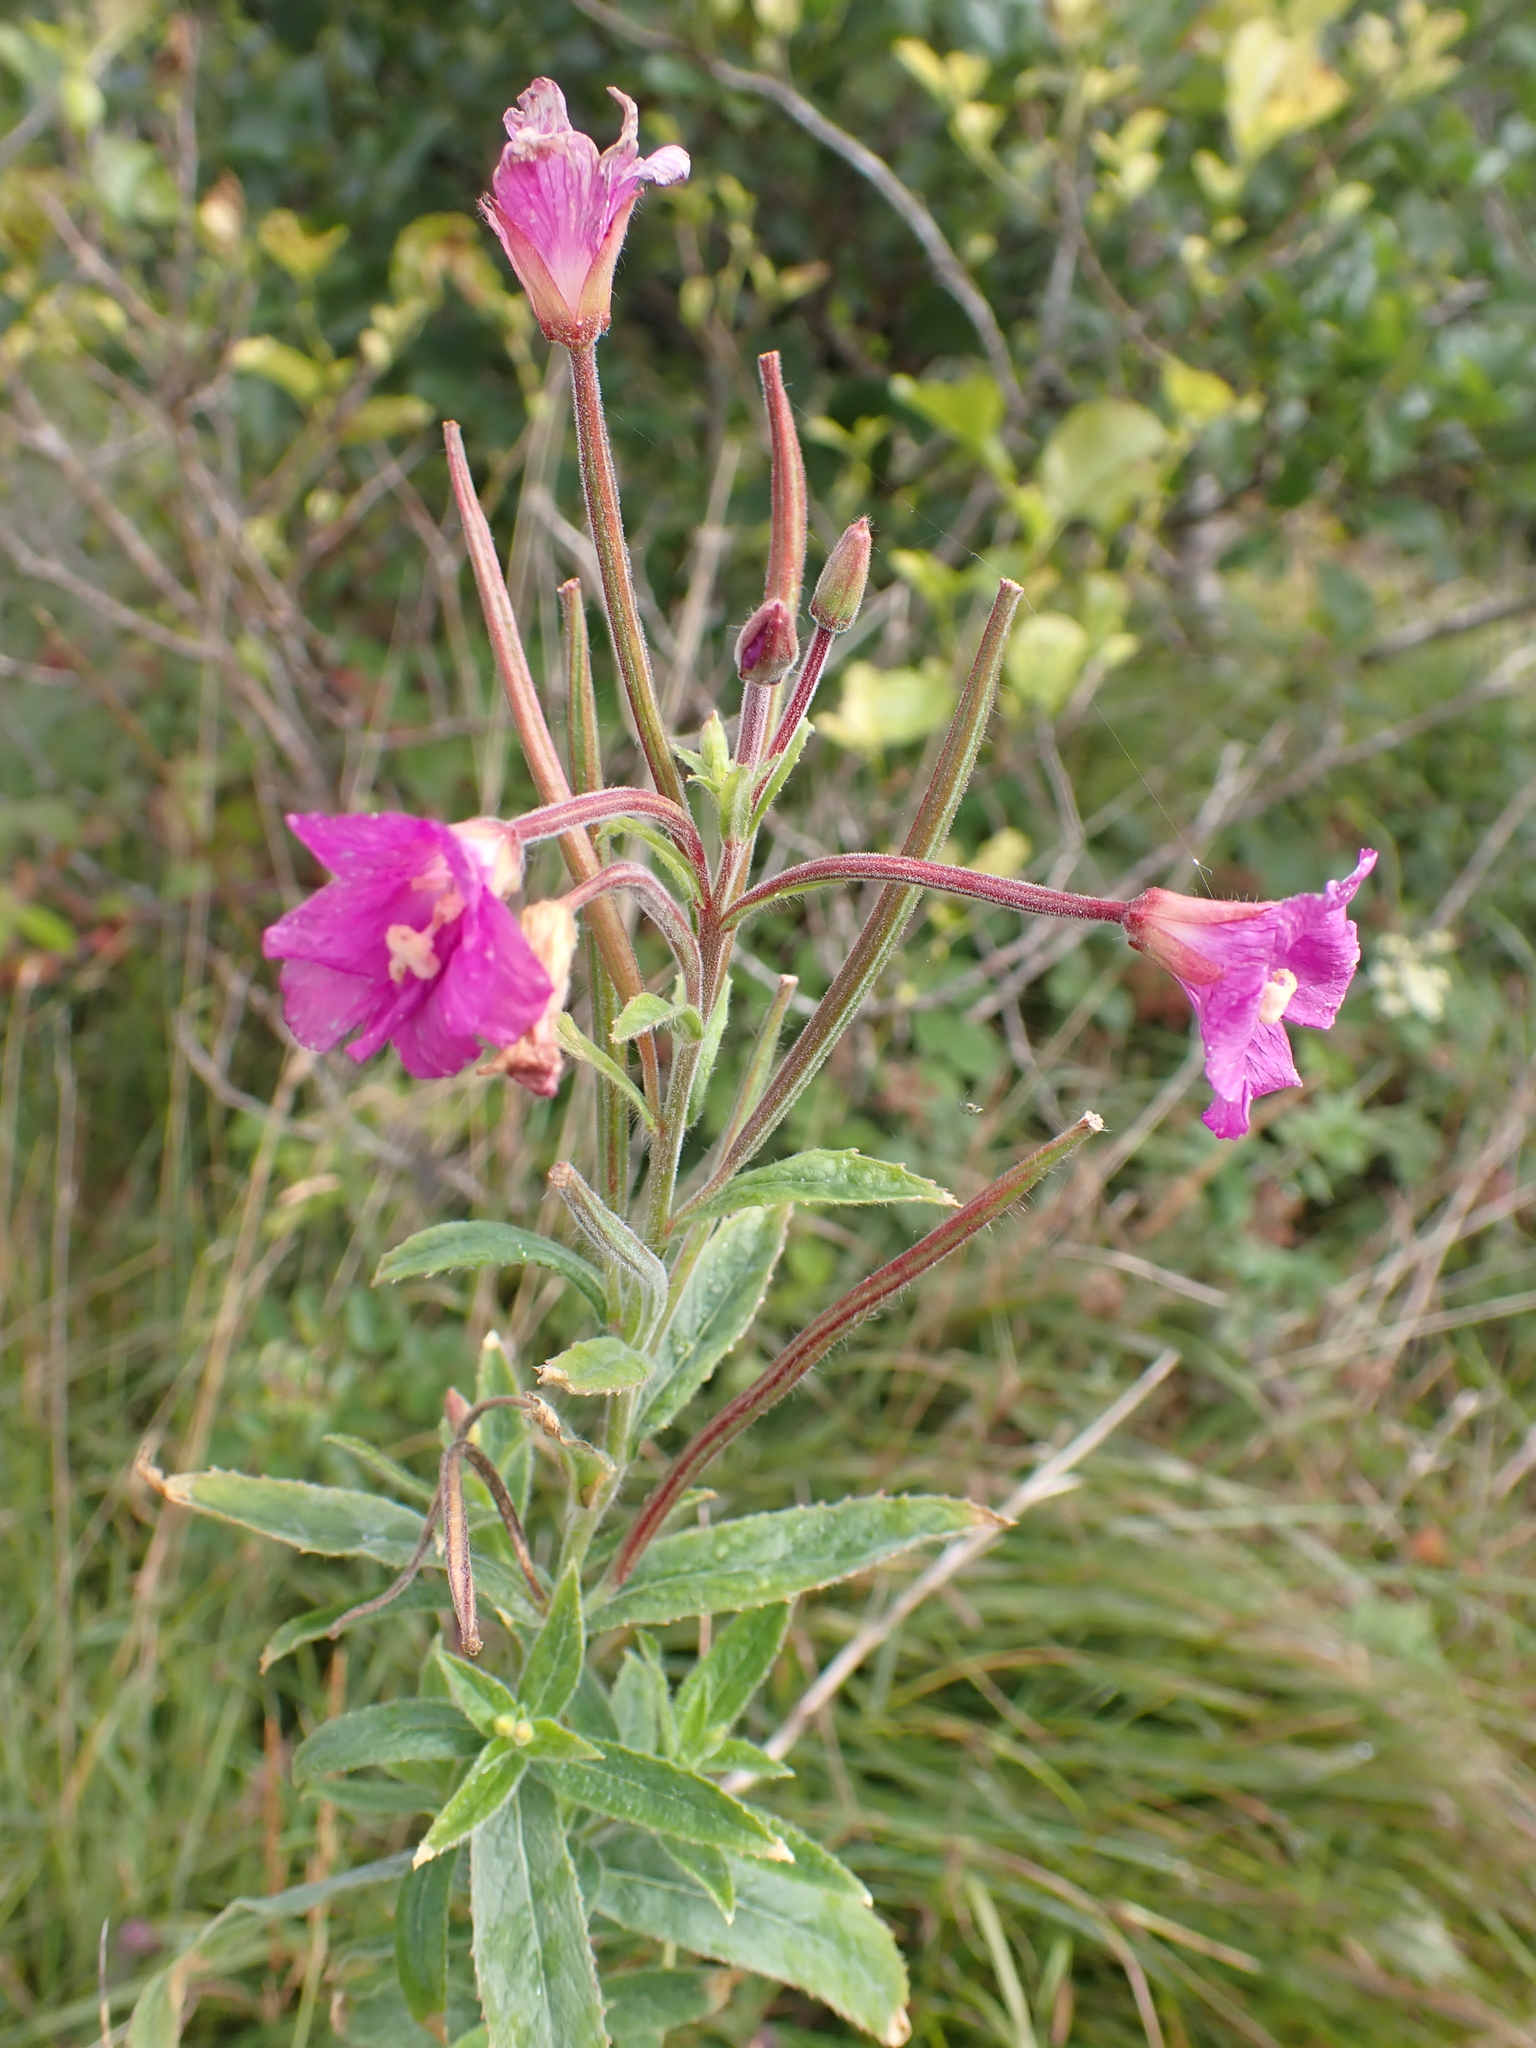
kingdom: Plantae
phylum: Tracheophyta
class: Magnoliopsida
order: Myrtales
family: Onagraceae
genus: Epilobium
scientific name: Epilobium hirsutum
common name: Great willowherb
